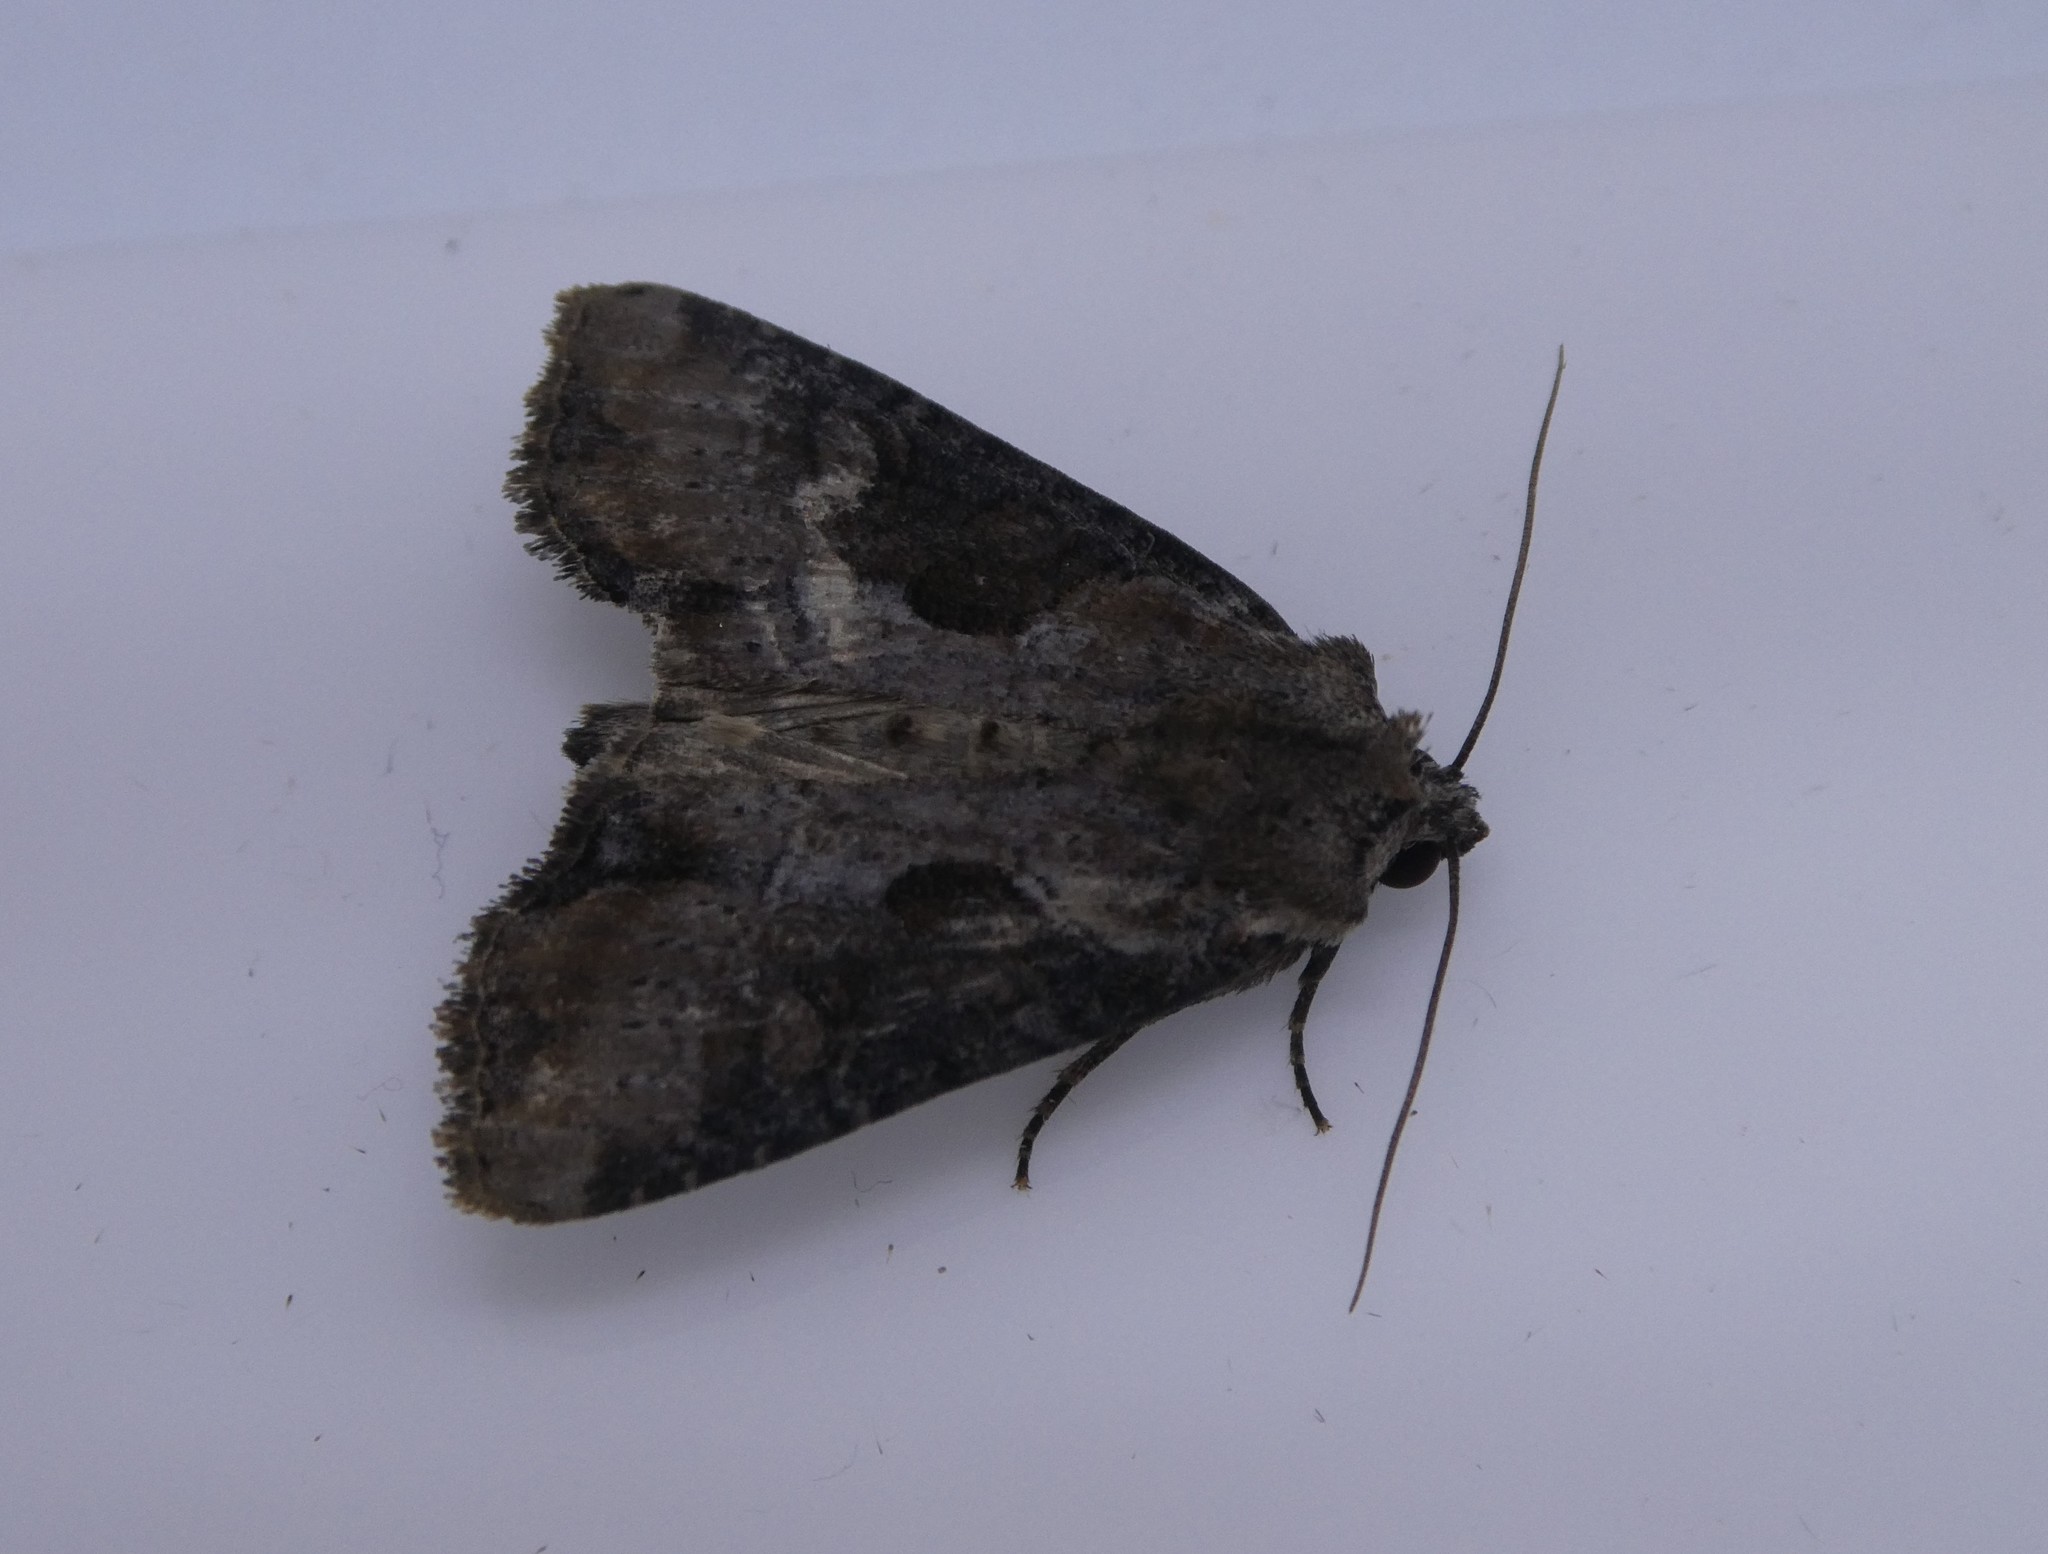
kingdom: Animalia
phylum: Arthropoda
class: Insecta
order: Lepidoptera
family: Noctuidae
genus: Lateroligia
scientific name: Lateroligia ophiogramma
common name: Double lobed
